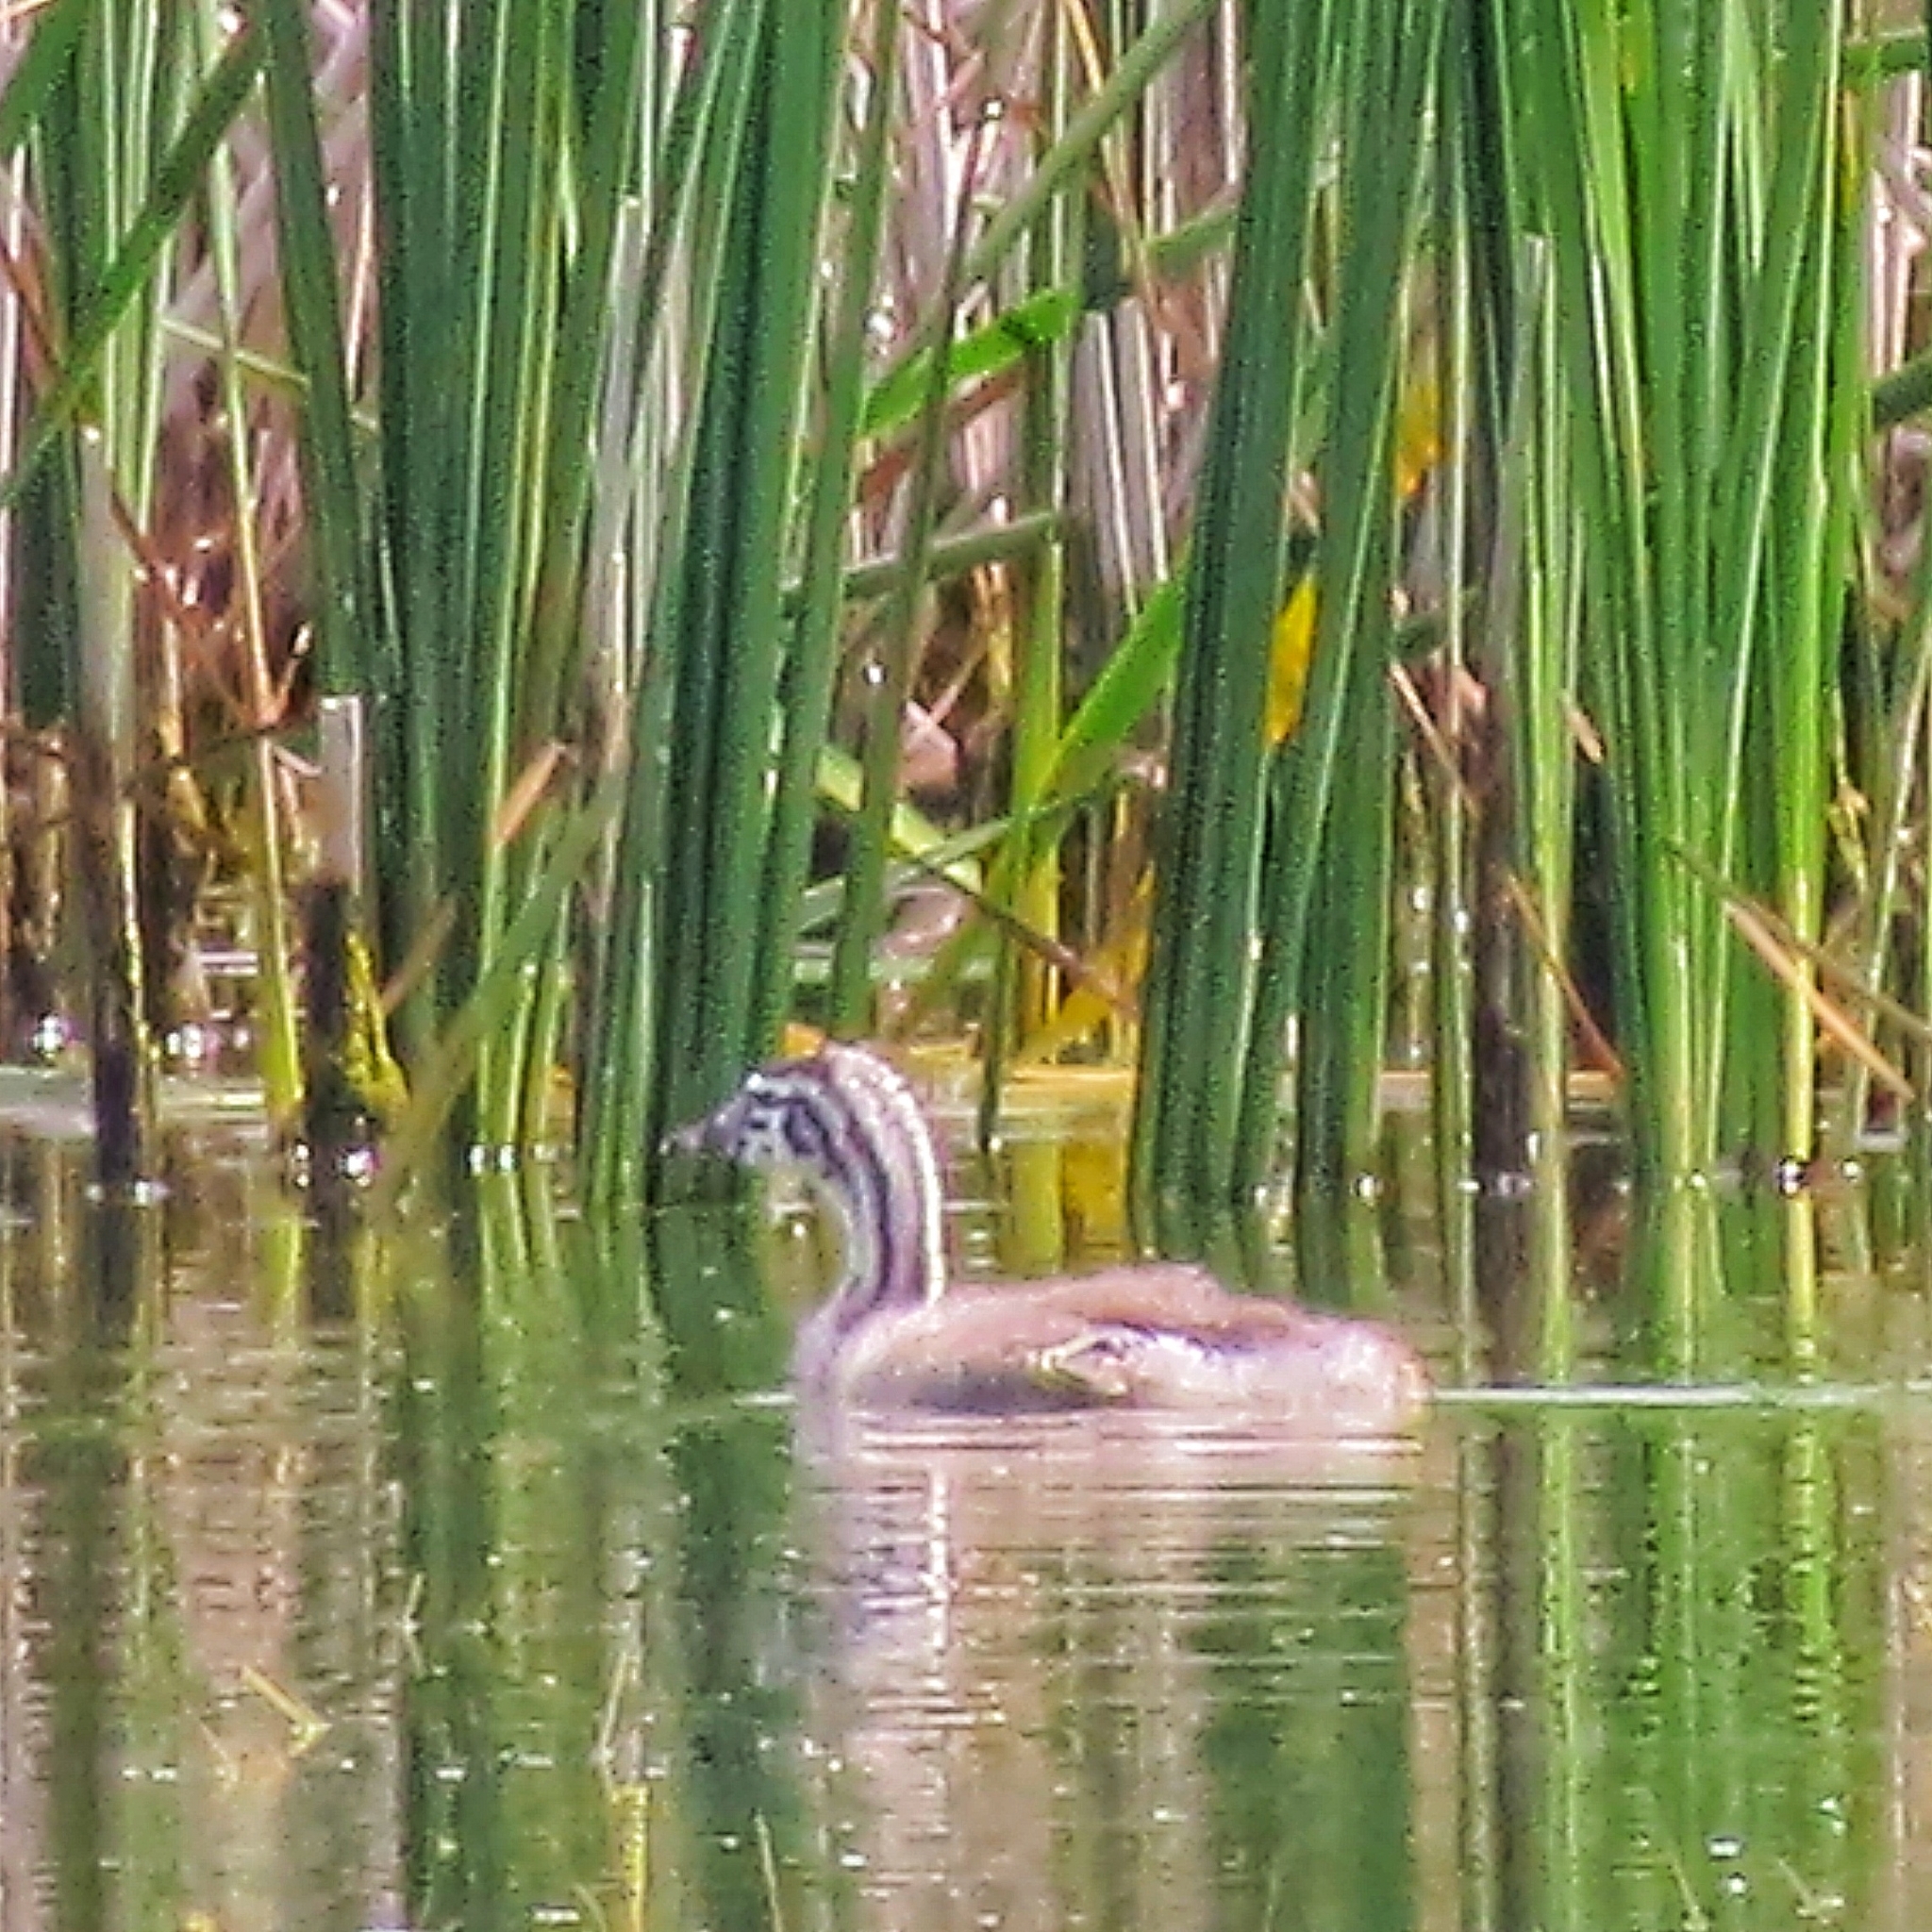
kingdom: Animalia
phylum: Chordata
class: Aves
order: Podicipediformes
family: Podicipedidae
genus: Podiceps
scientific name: Podiceps cristatus
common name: Great crested grebe
